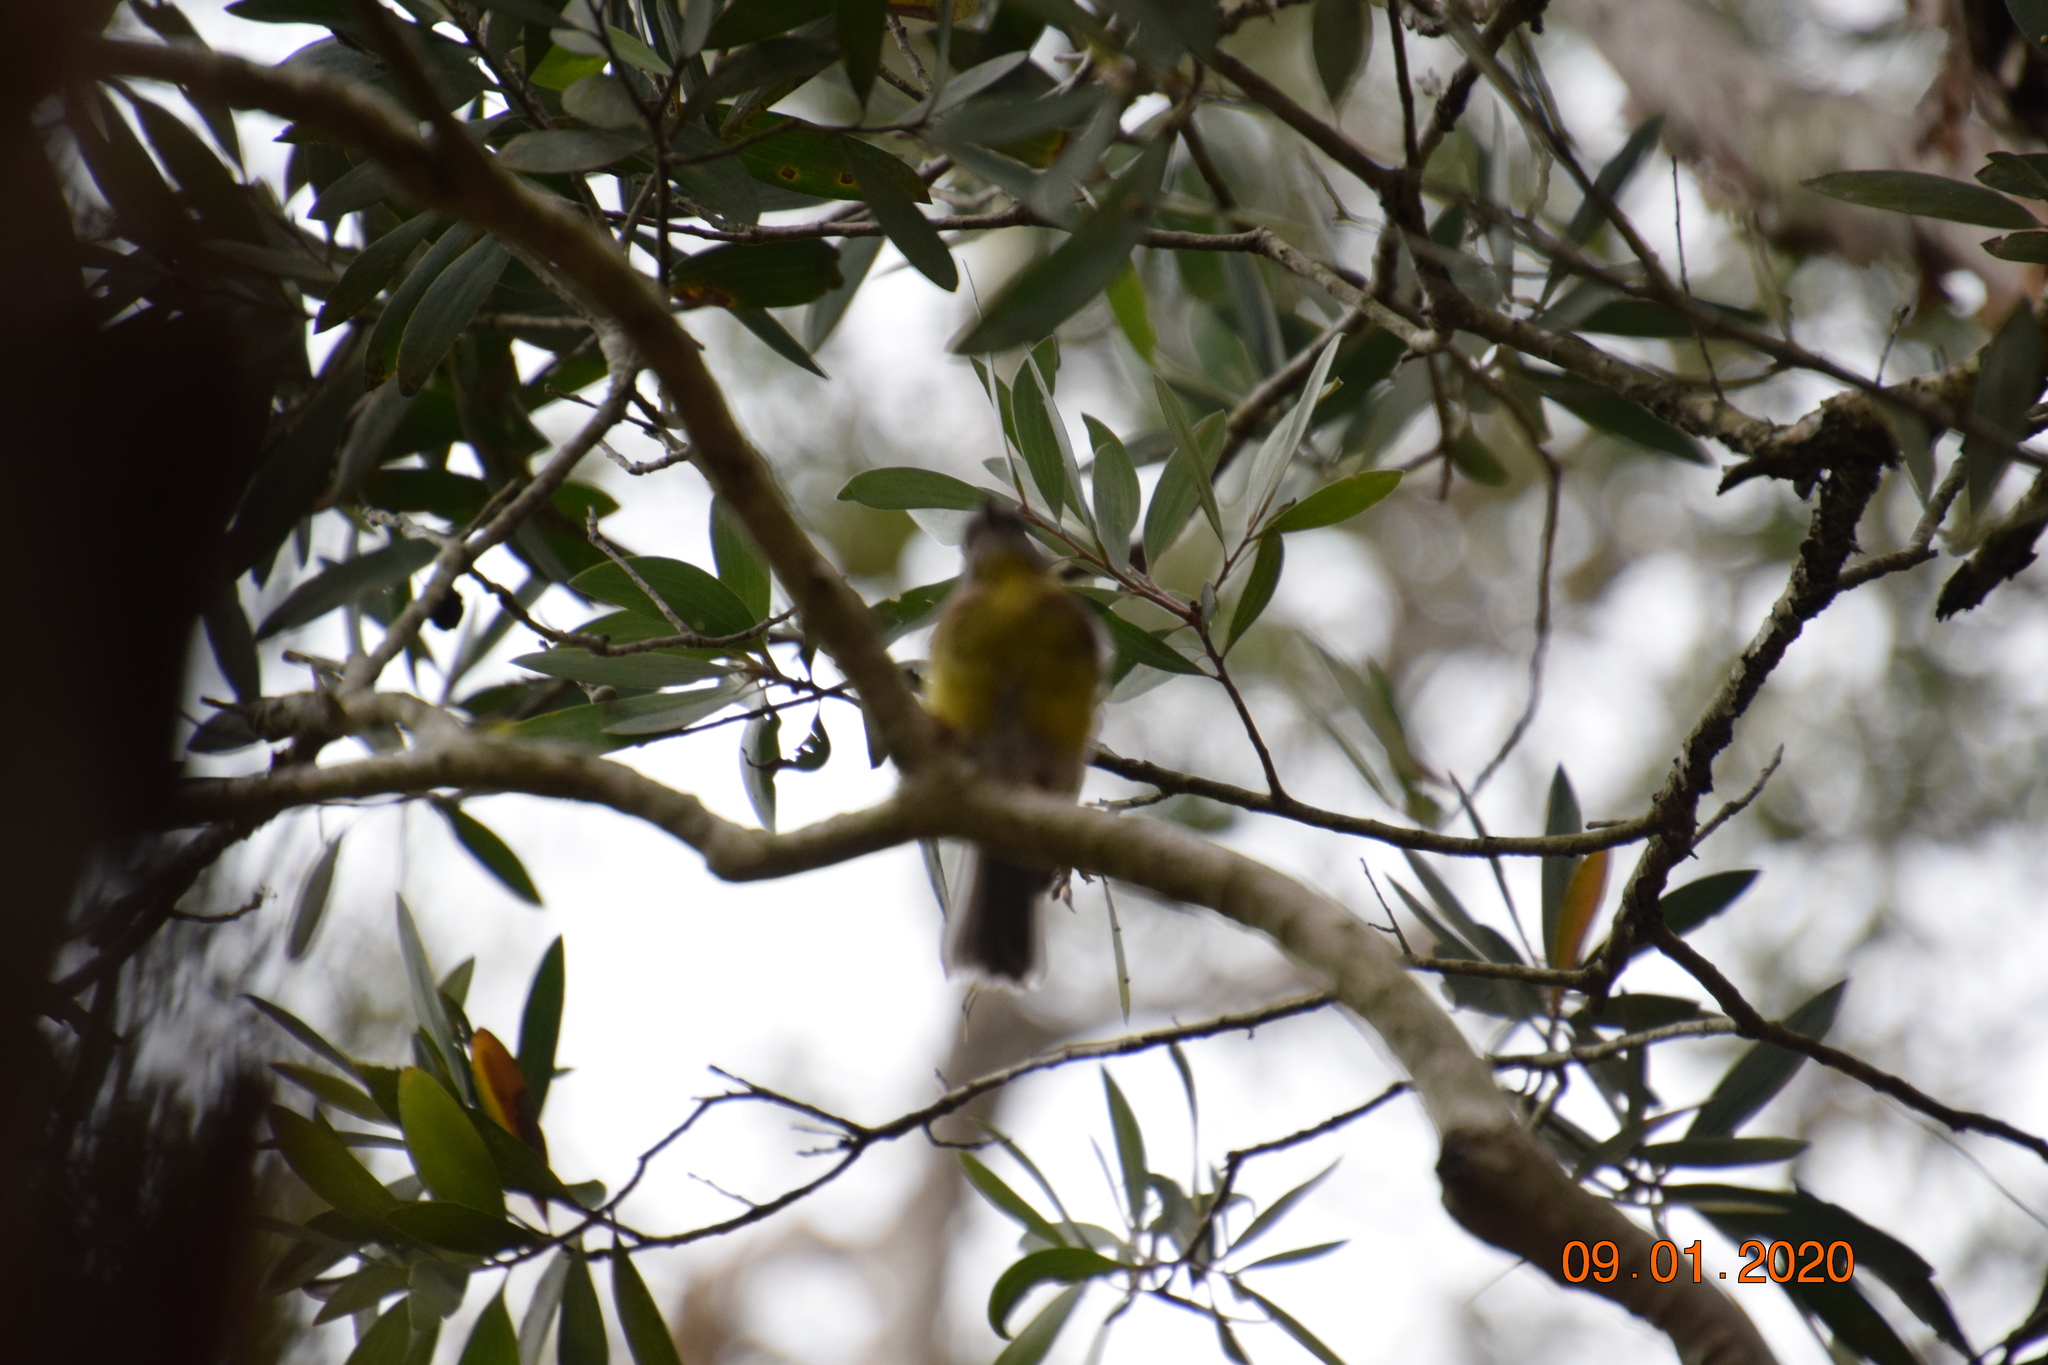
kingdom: Animalia
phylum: Chordata
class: Aves
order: Passeriformes
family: Petroicidae
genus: Eopsaltria
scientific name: Eopsaltria australis
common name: Eastern yellow robin
